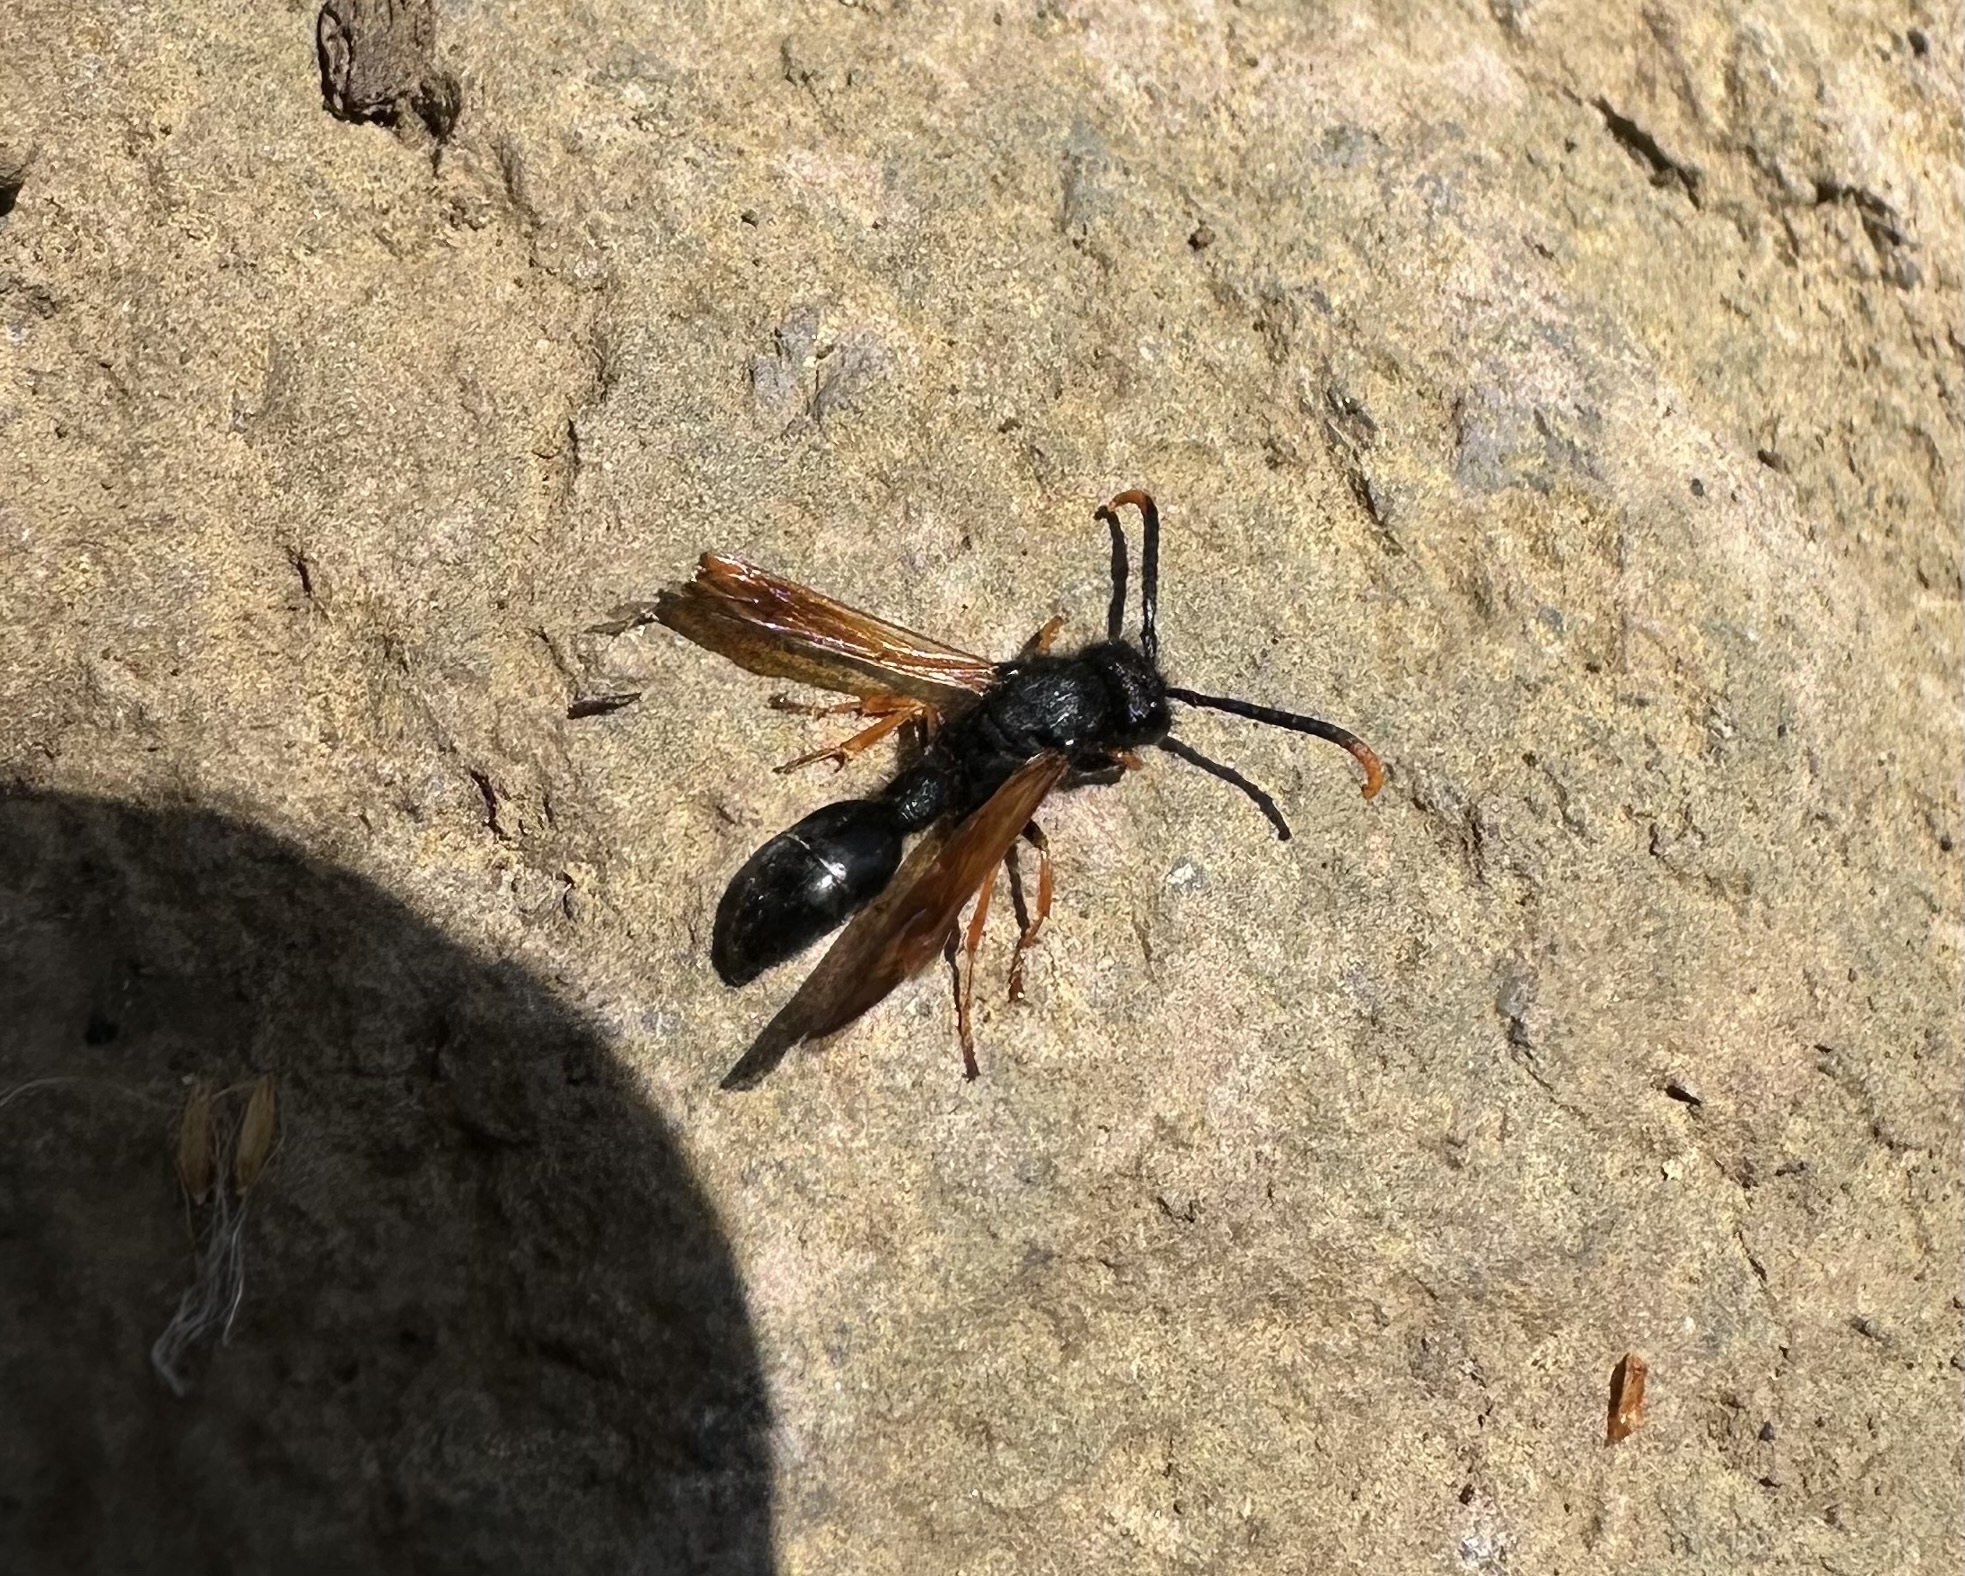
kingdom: Animalia
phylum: Arthropoda
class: Insecta
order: Hymenoptera
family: Eumenidae
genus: Protodiscoelius
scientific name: Protodiscoelius schachovskoyi
